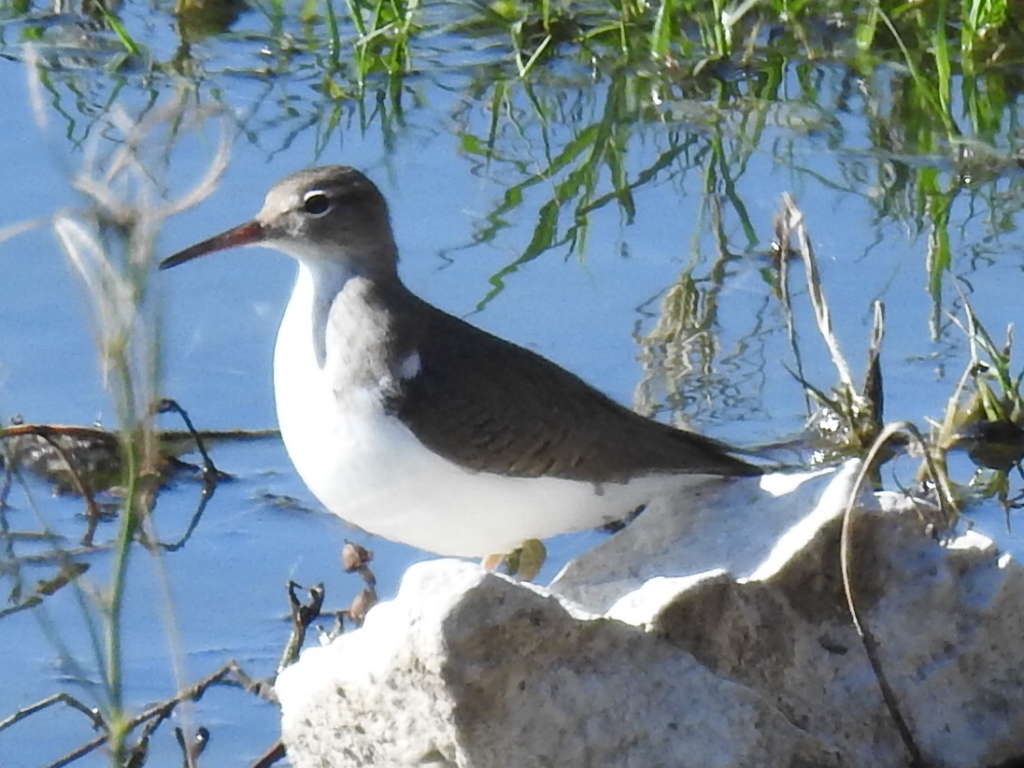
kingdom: Animalia
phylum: Chordata
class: Aves
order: Charadriiformes
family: Scolopacidae
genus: Actitis
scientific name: Actitis macularius
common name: Spotted sandpiper
